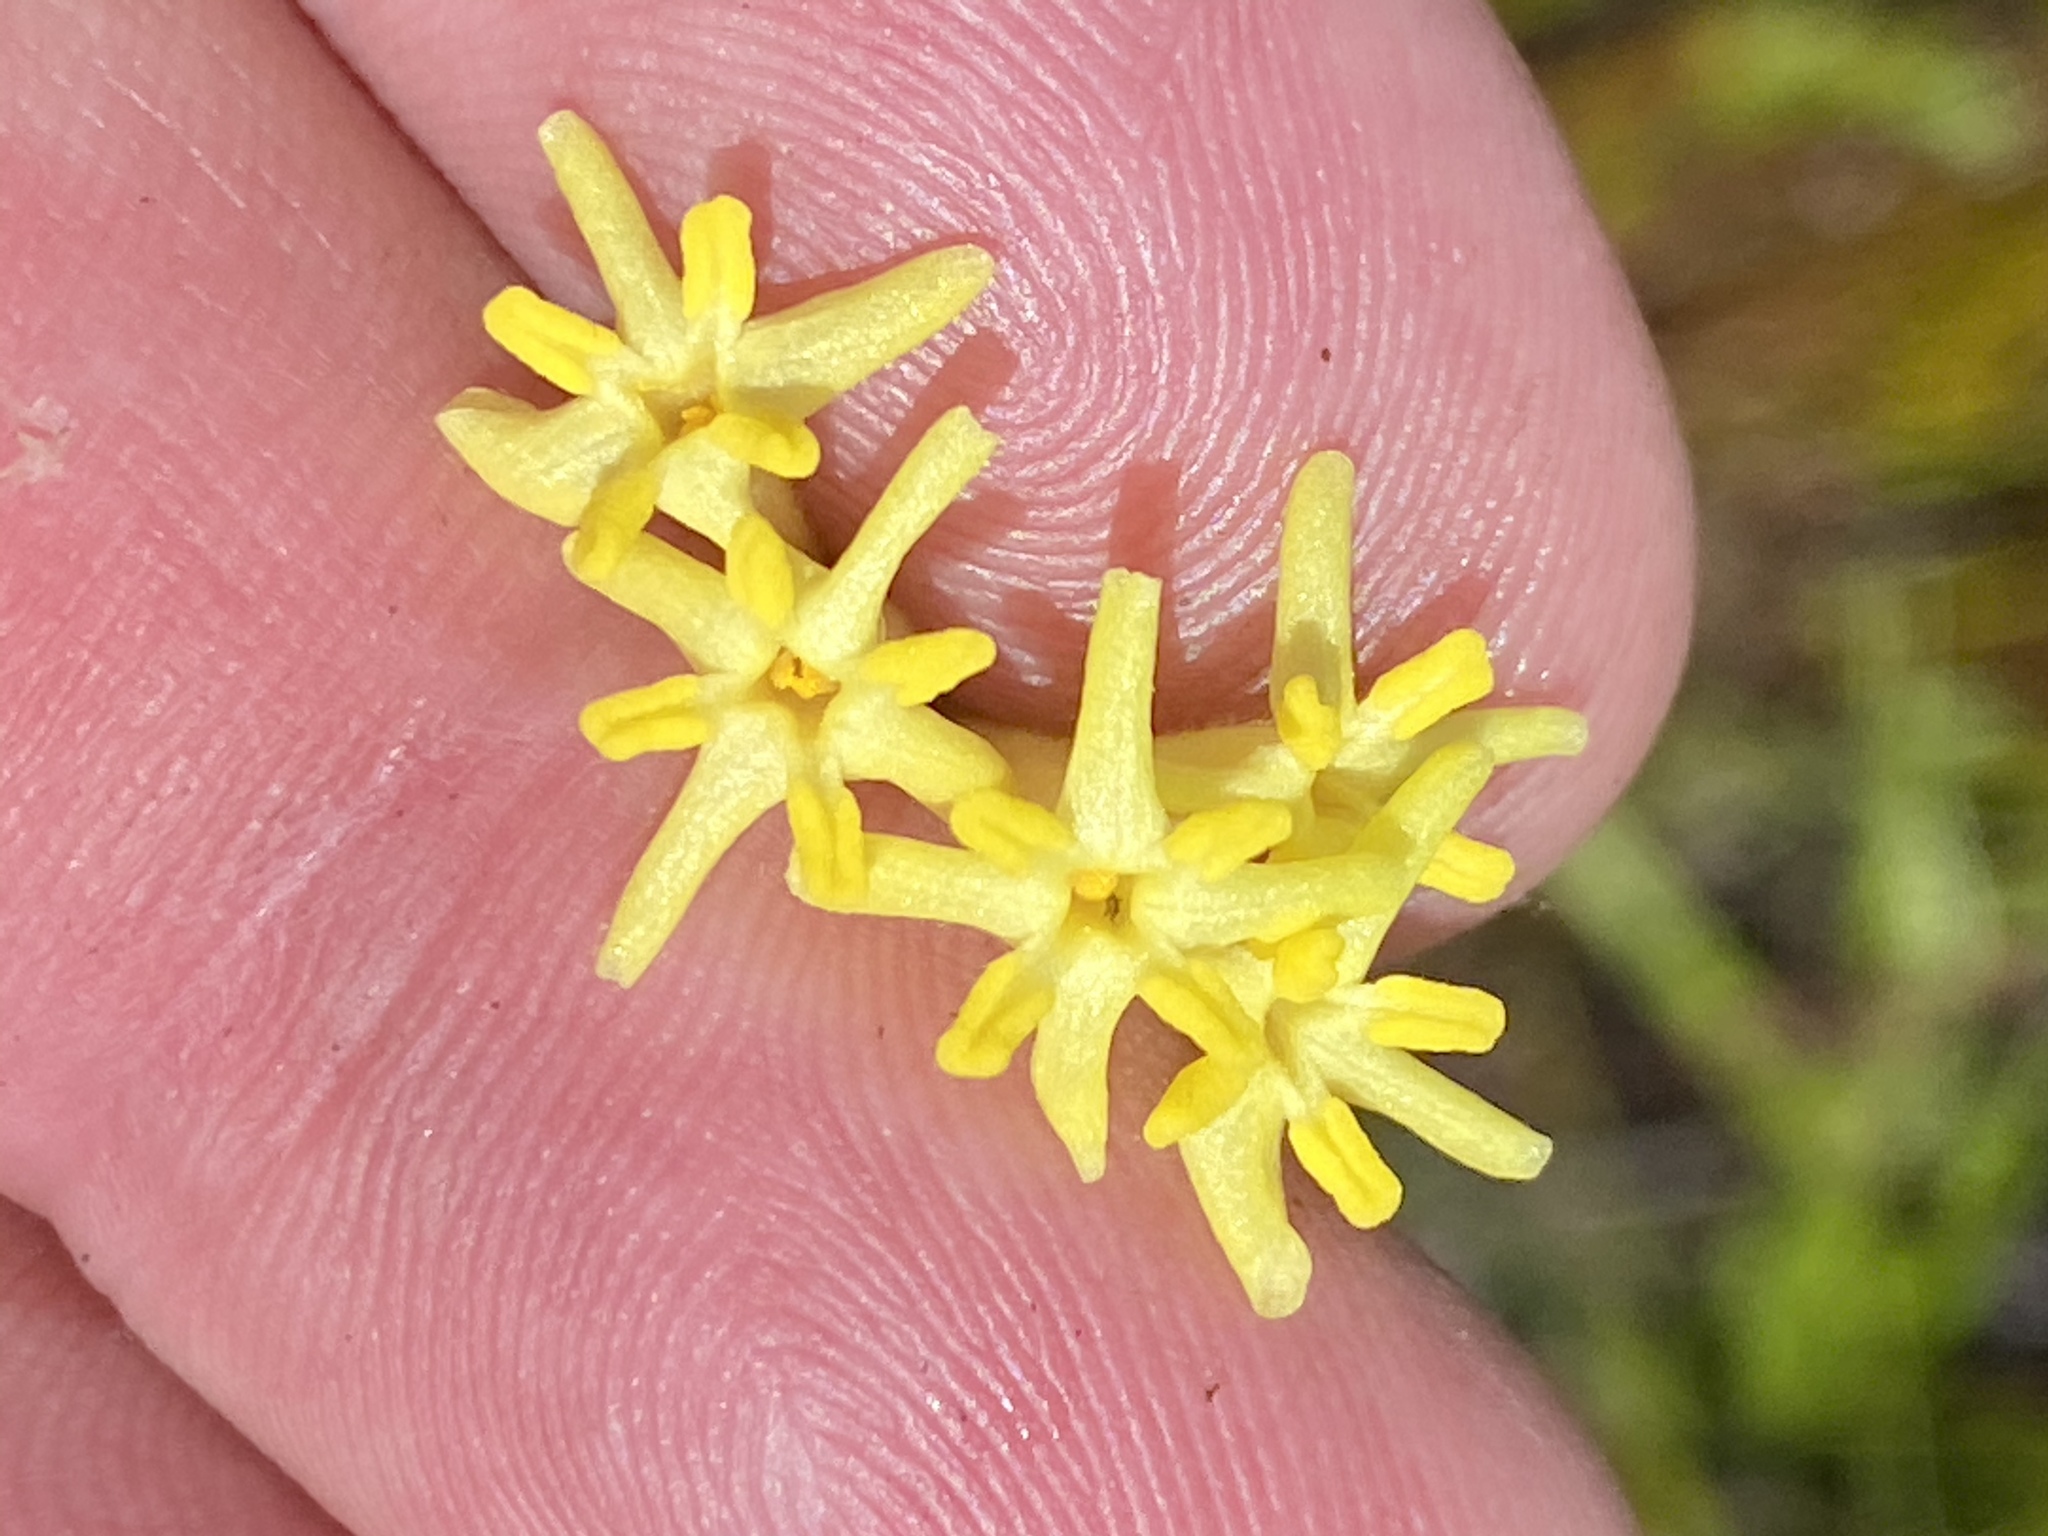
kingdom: Plantae
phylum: Tracheophyta
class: Magnoliopsida
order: Malvales
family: Thymelaeaceae
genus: Gnidia
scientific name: Gnidia oppositifolia
